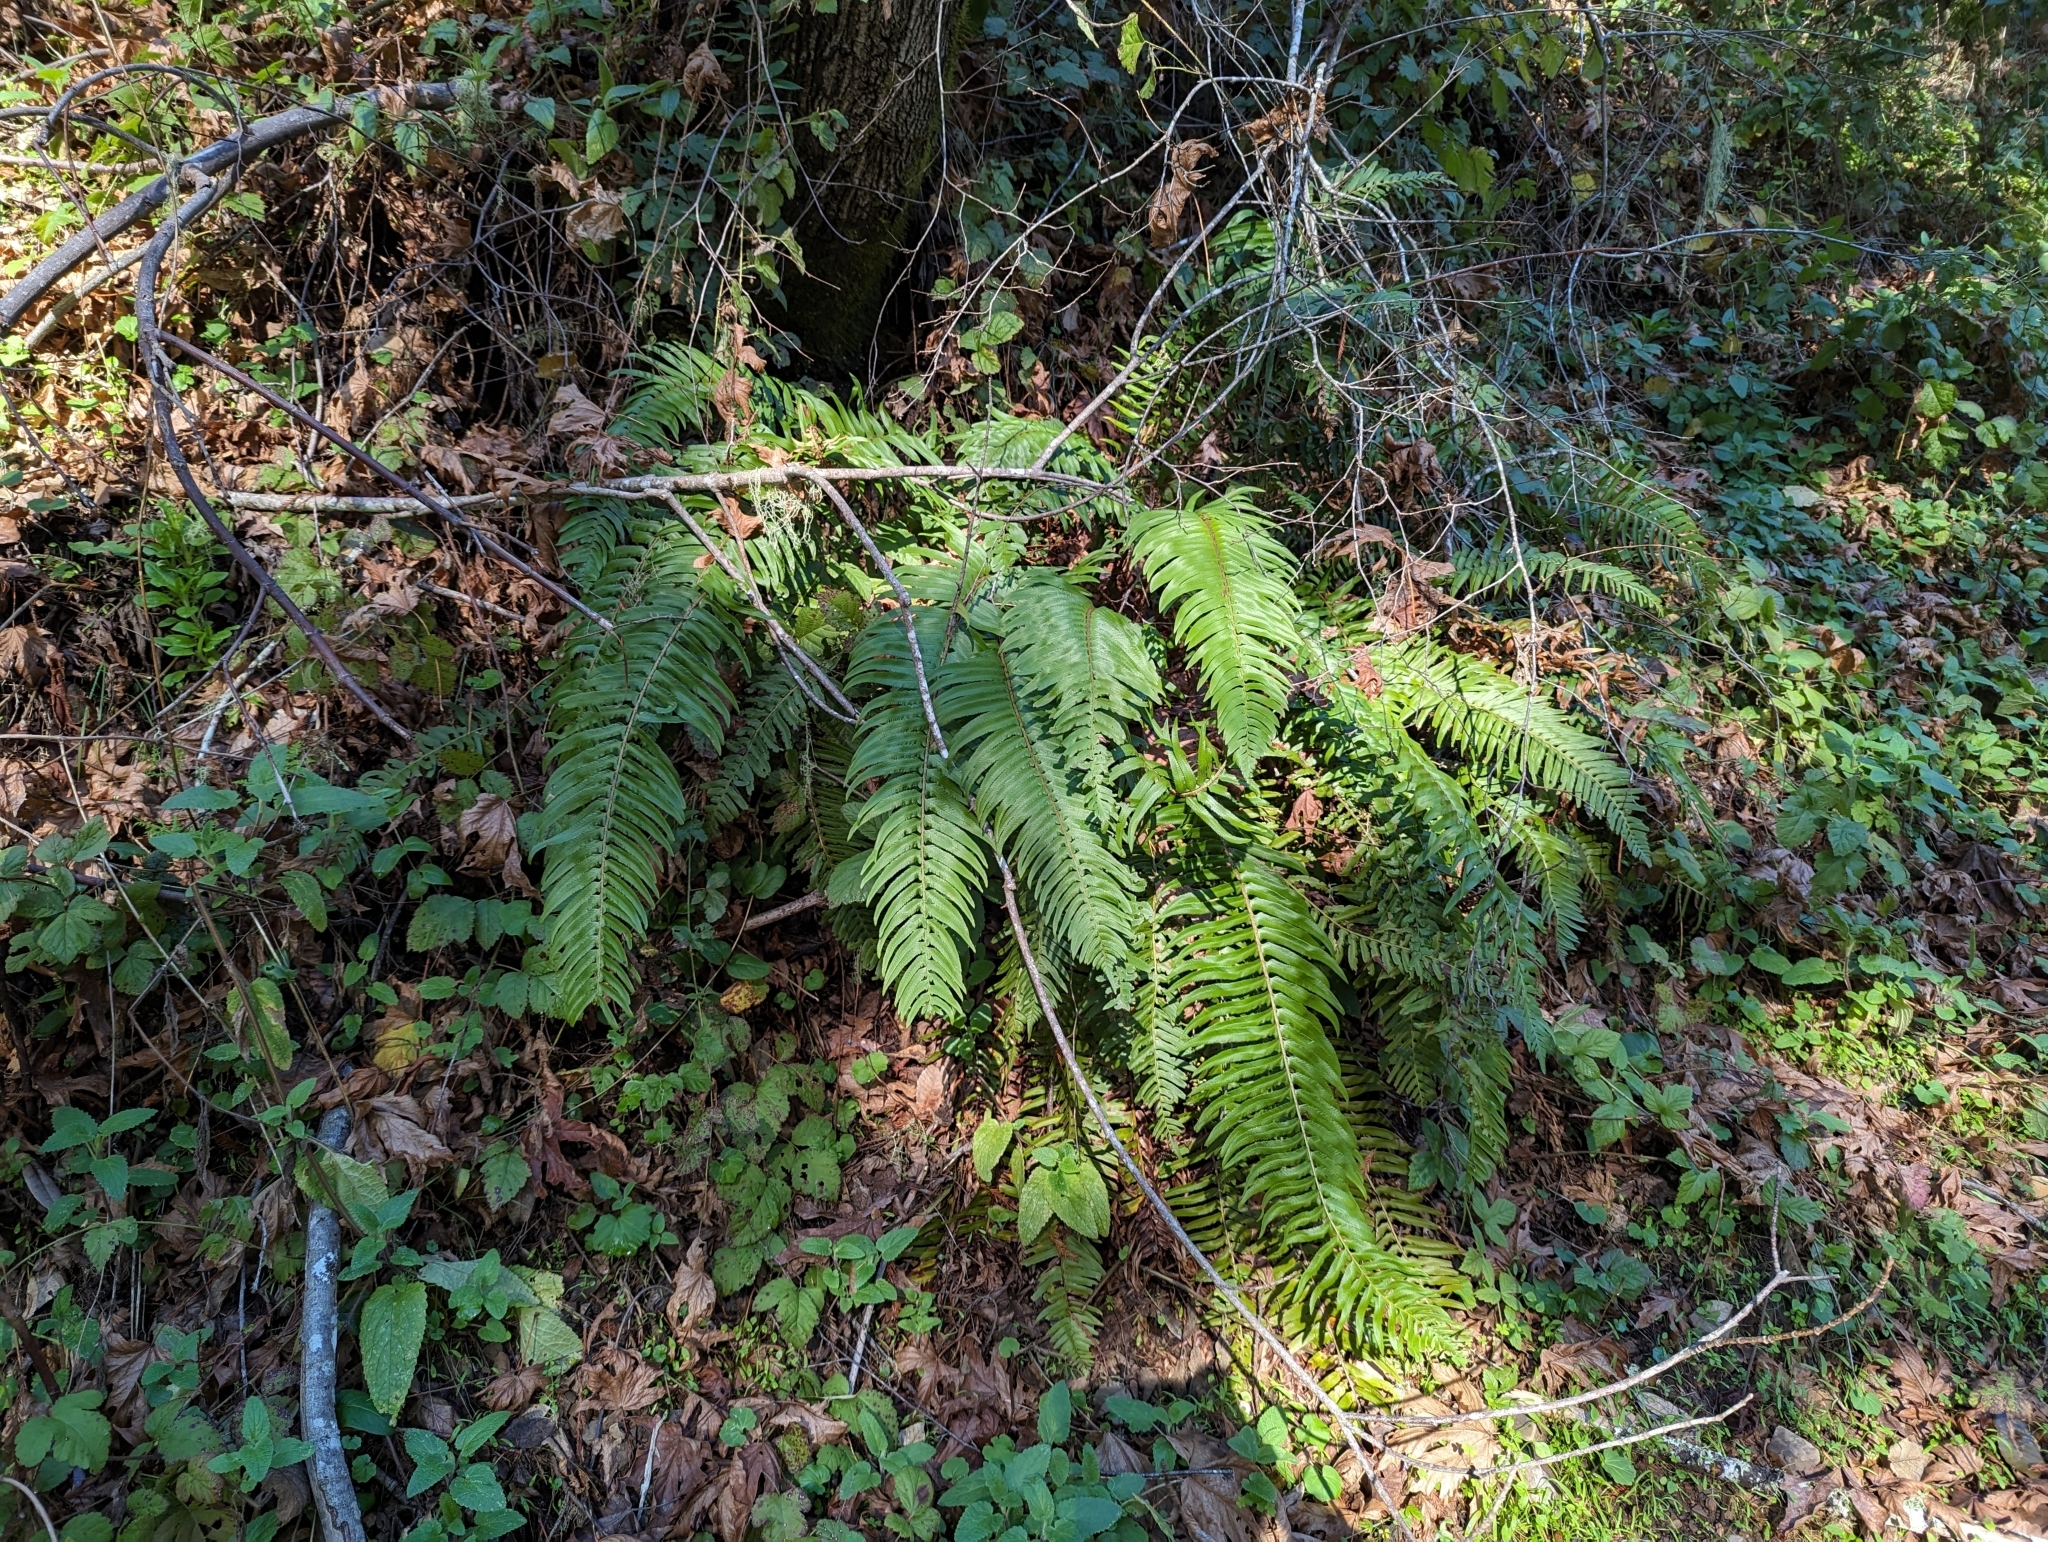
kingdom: Plantae
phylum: Tracheophyta
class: Polypodiopsida
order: Polypodiales
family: Dryopteridaceae
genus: Polystichum
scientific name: Polystichum munitum
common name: Western sword-fern
